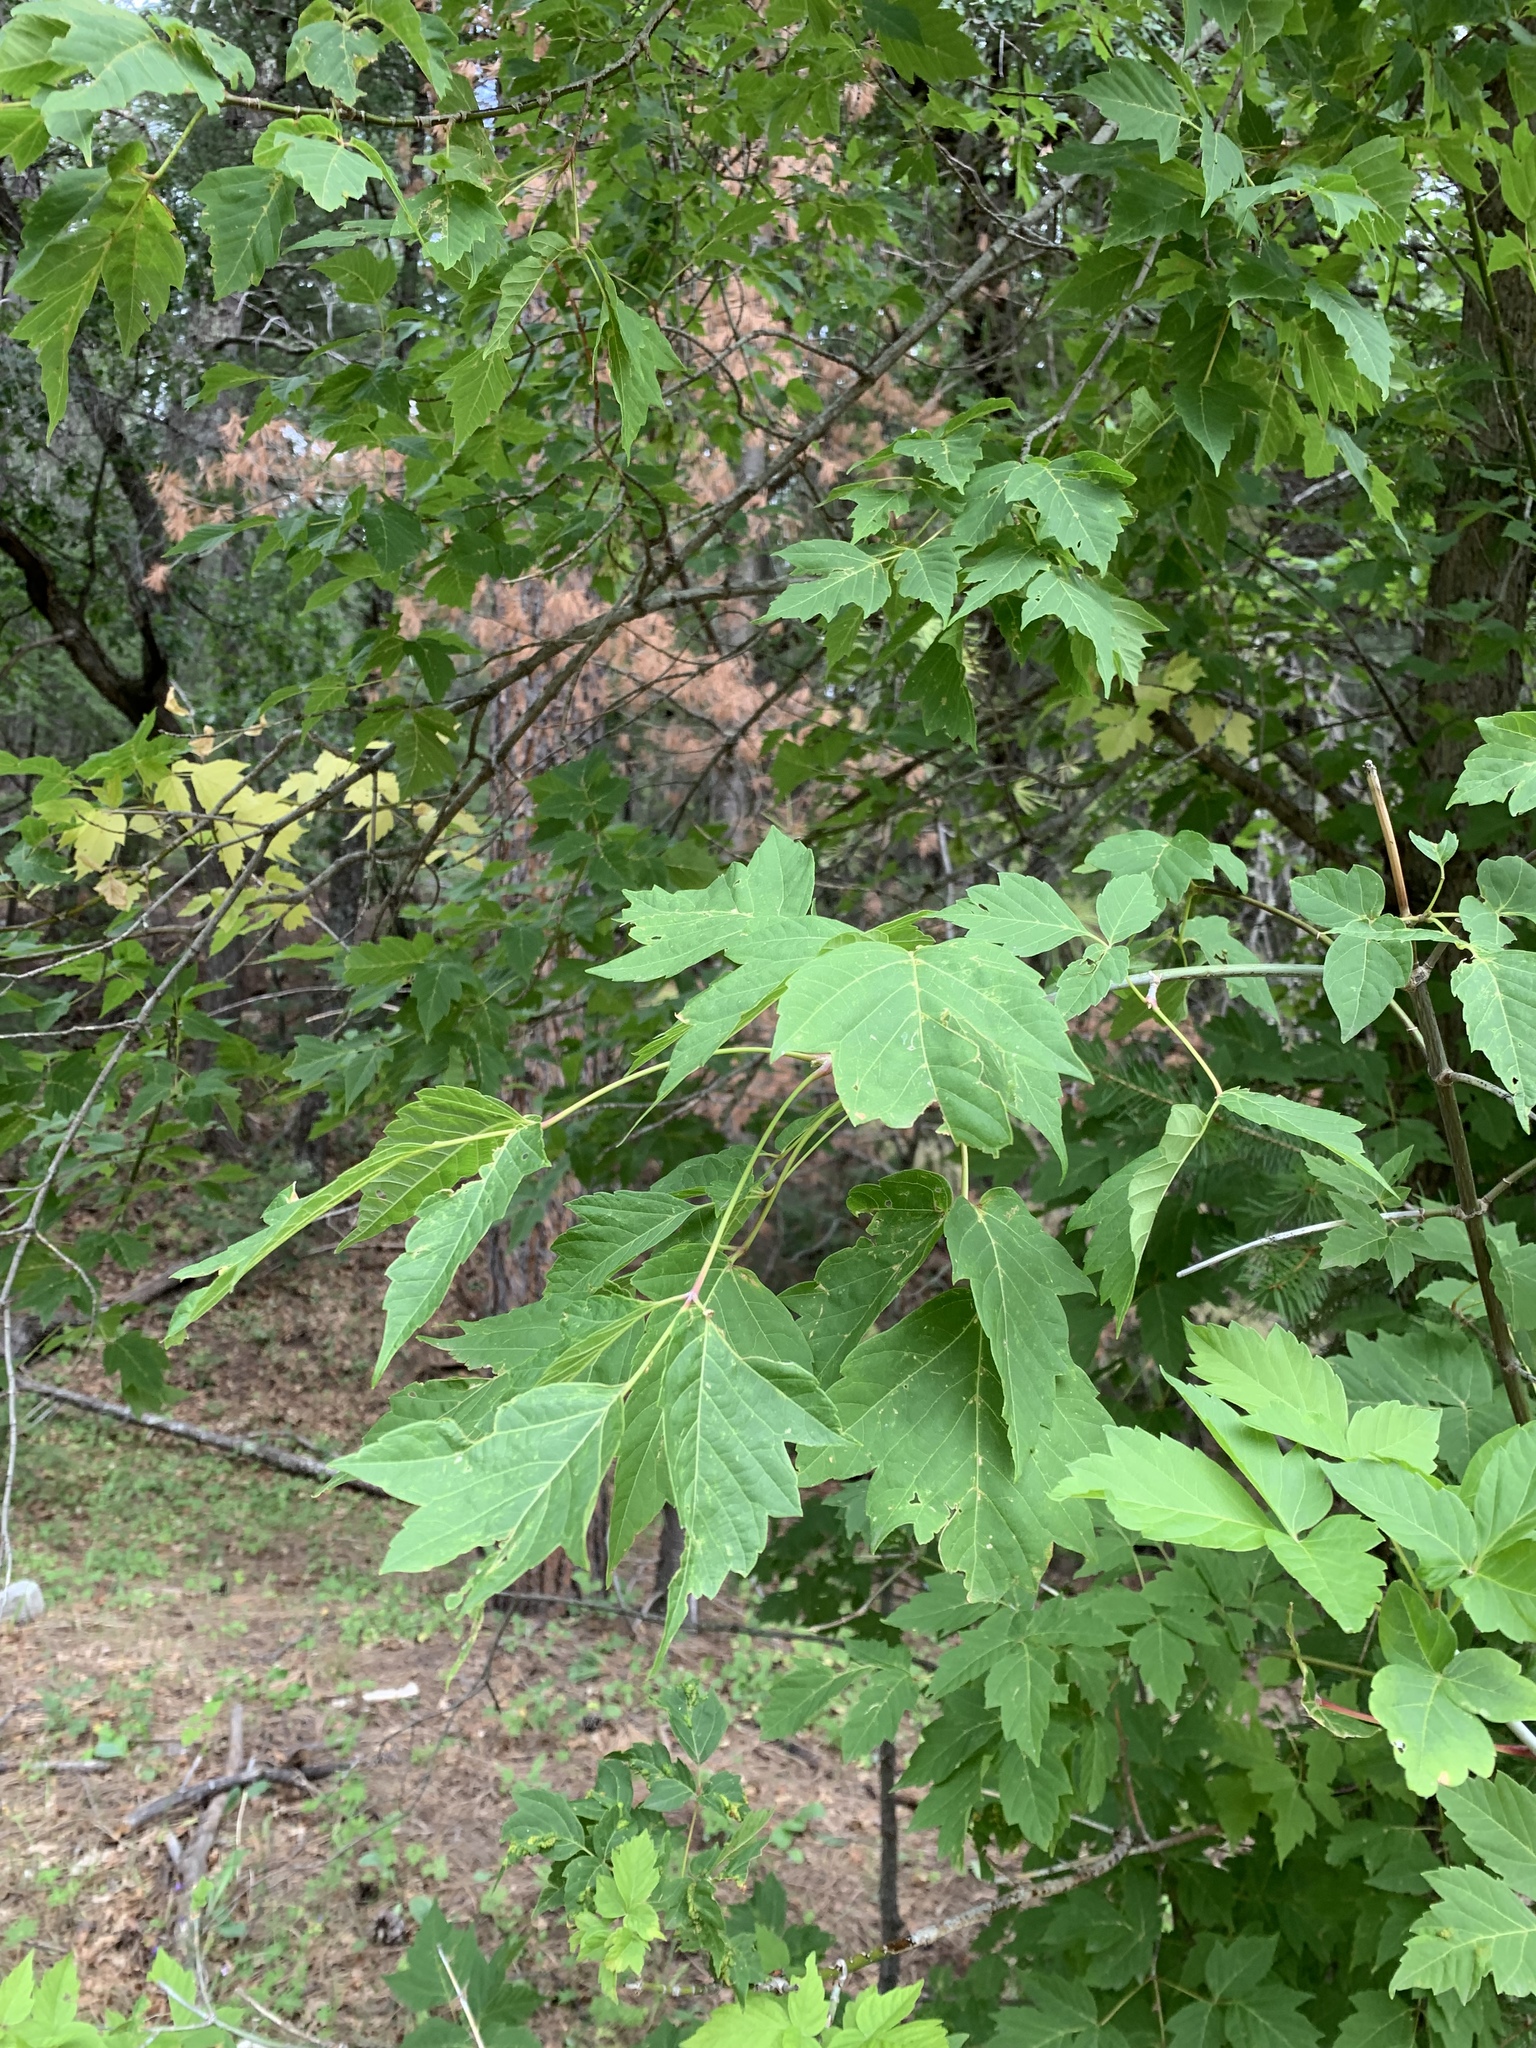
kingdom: Plantae
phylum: Tracheophyta
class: Magnoliopsida
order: Sapindales
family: Sapindaceae
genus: Acer
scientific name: Acer negundo
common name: Ashleaf maple
